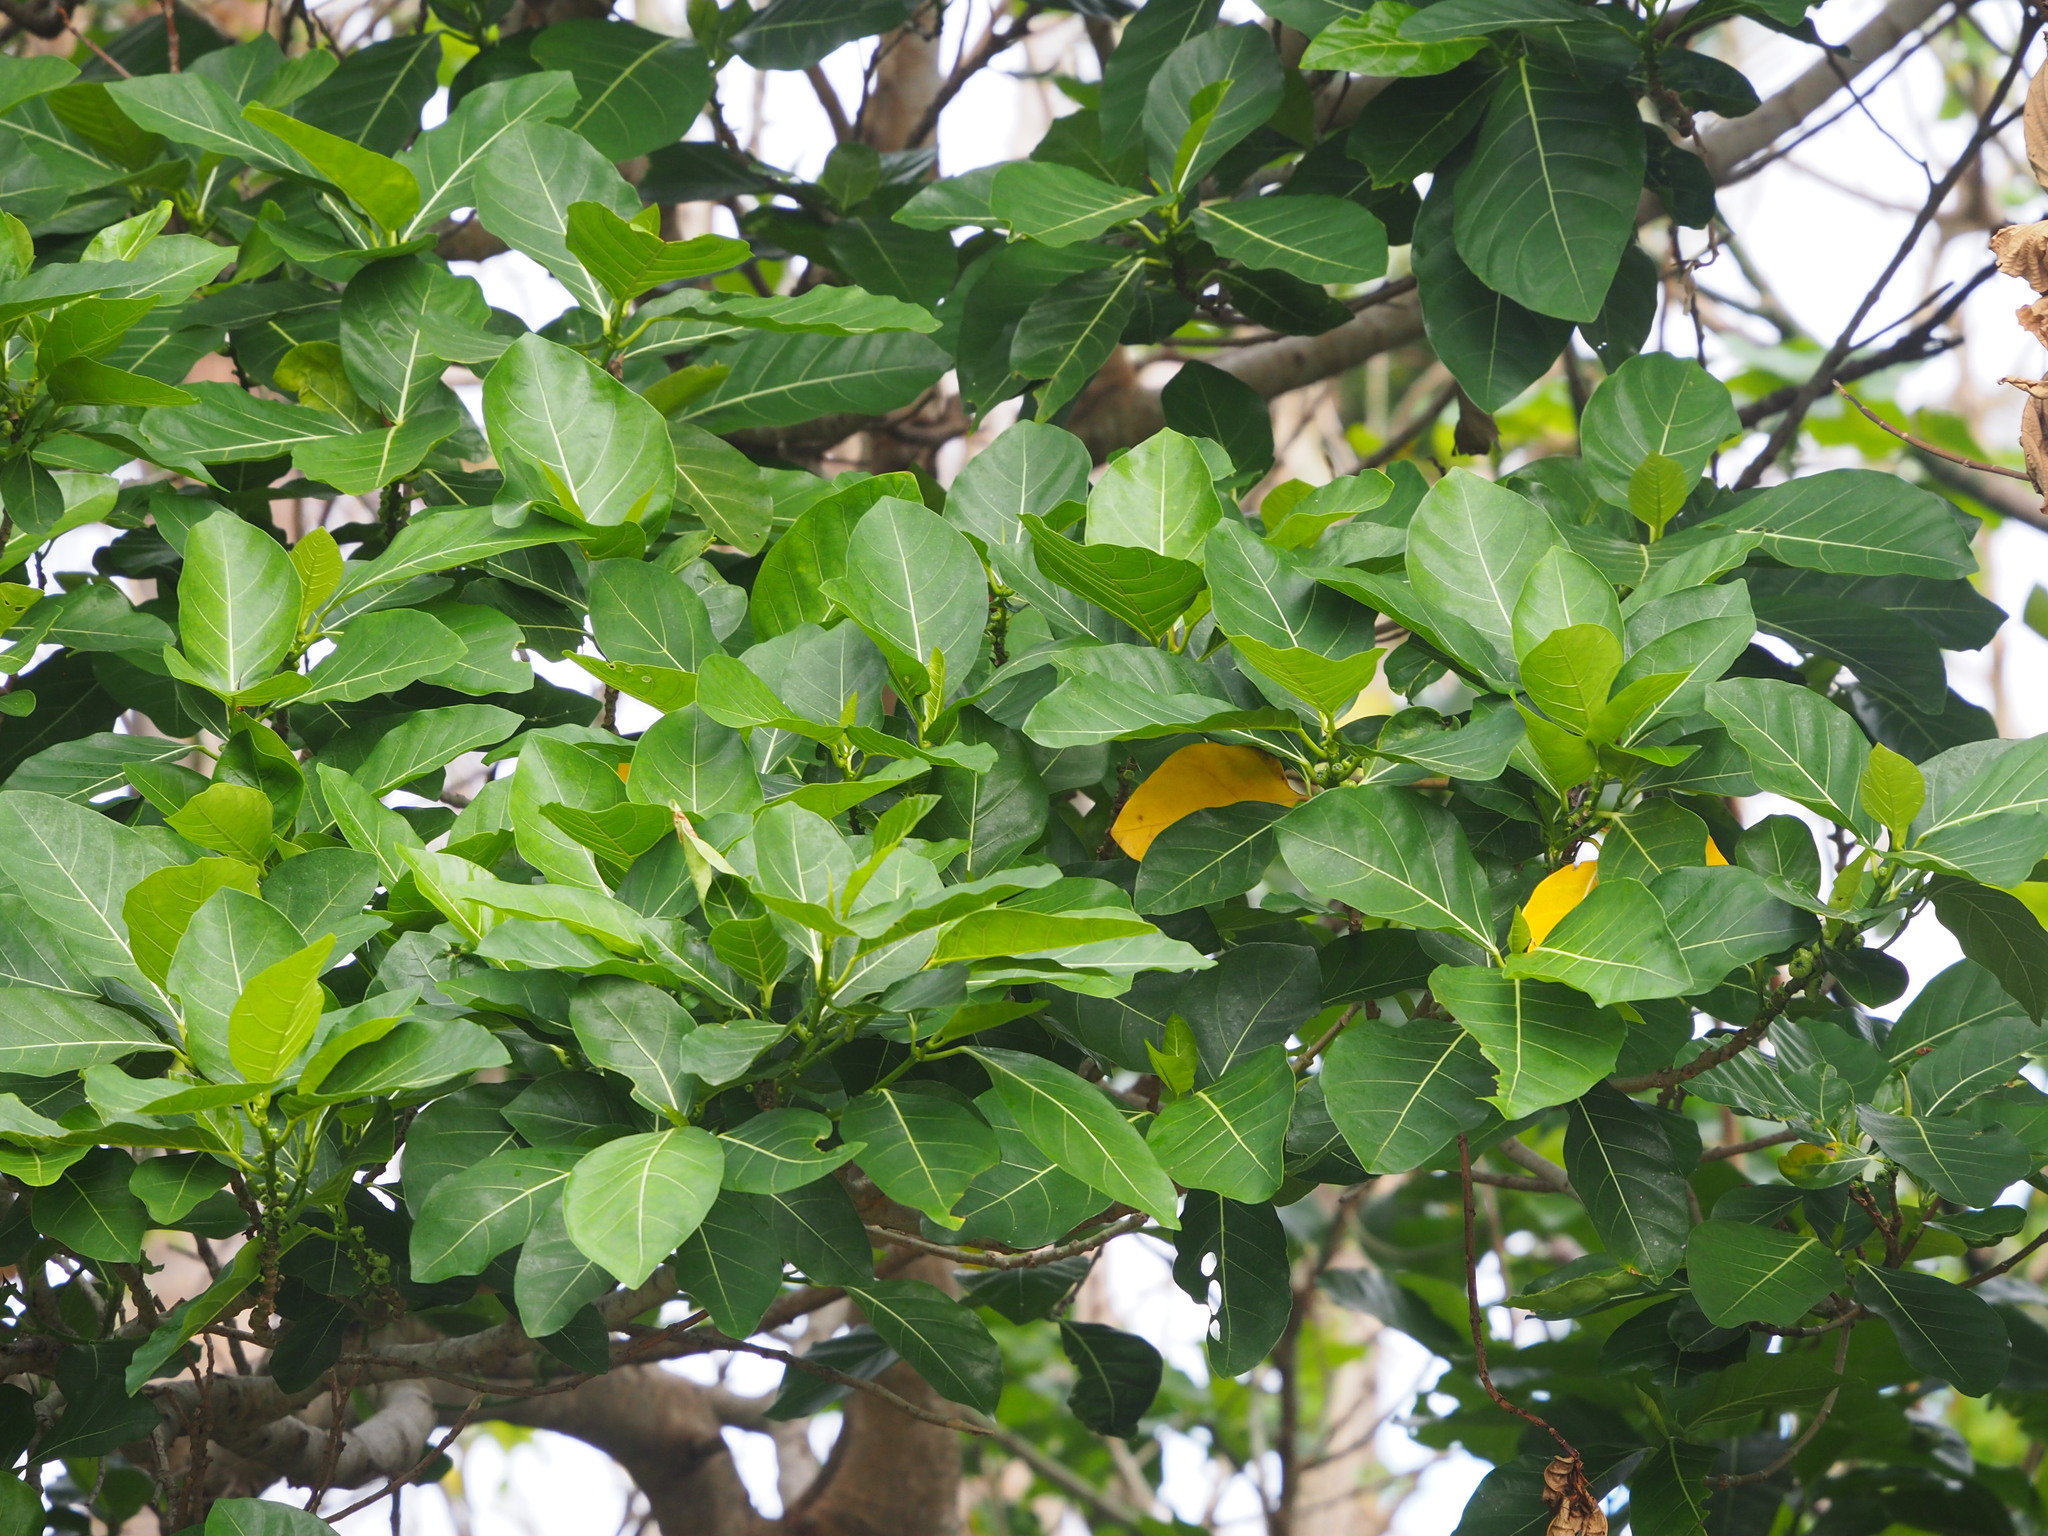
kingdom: Plantae
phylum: Tracheophyta
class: Magnoliopsida
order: Rosales
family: Moraceae
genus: Ficus
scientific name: Ficus septica
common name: Septic fig
